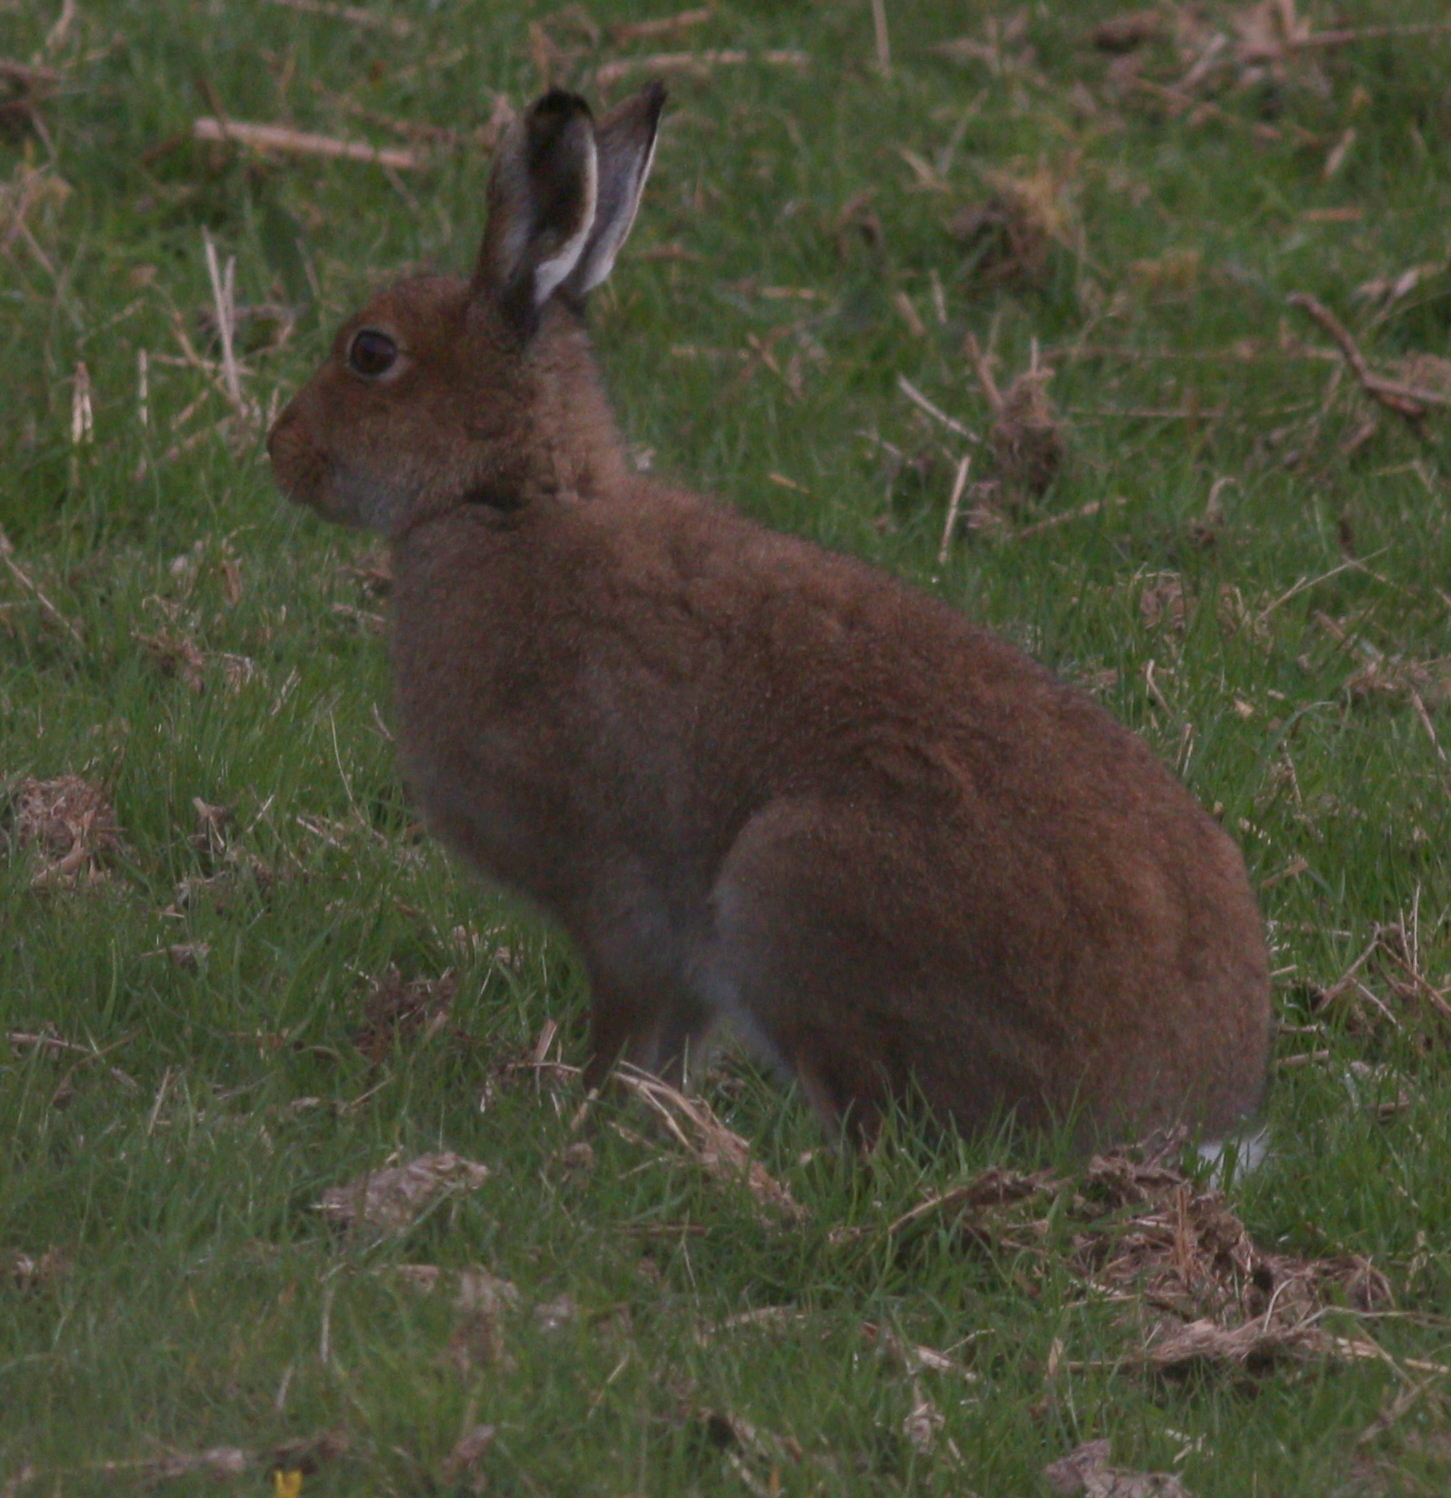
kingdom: Animalia
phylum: Chordata
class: Mammalia
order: Lagomorpha
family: Leporidae
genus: Lepus
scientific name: Lepus timidus
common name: Mountain hare
